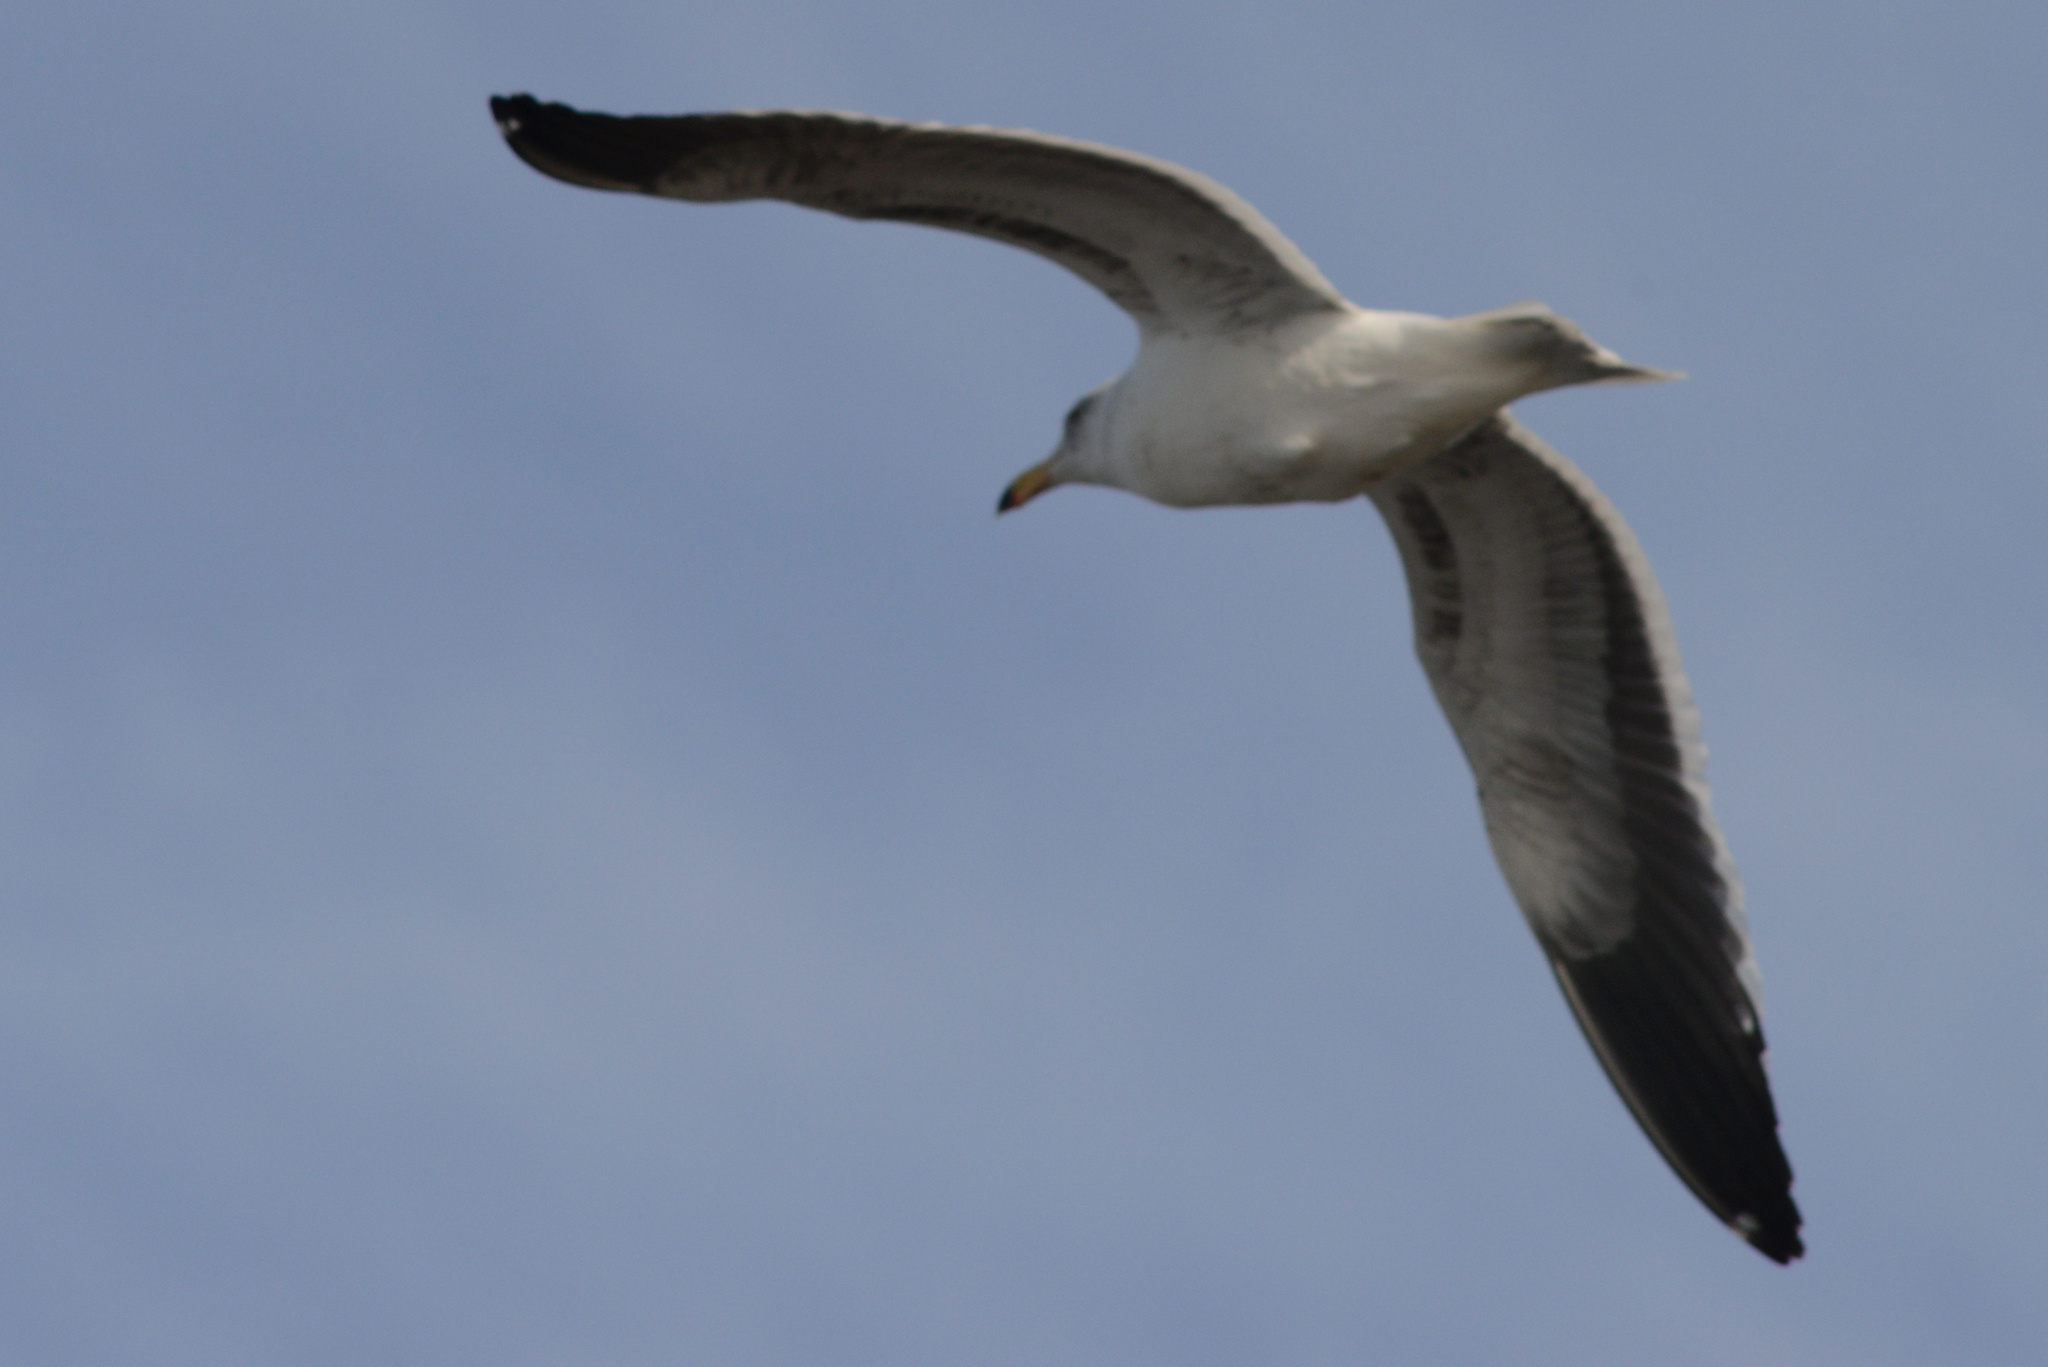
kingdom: Animalia
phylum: Chordata
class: Aves
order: Charadriiformes
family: Laridae
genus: Larus
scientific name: Larus occidentalis
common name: Western gull
